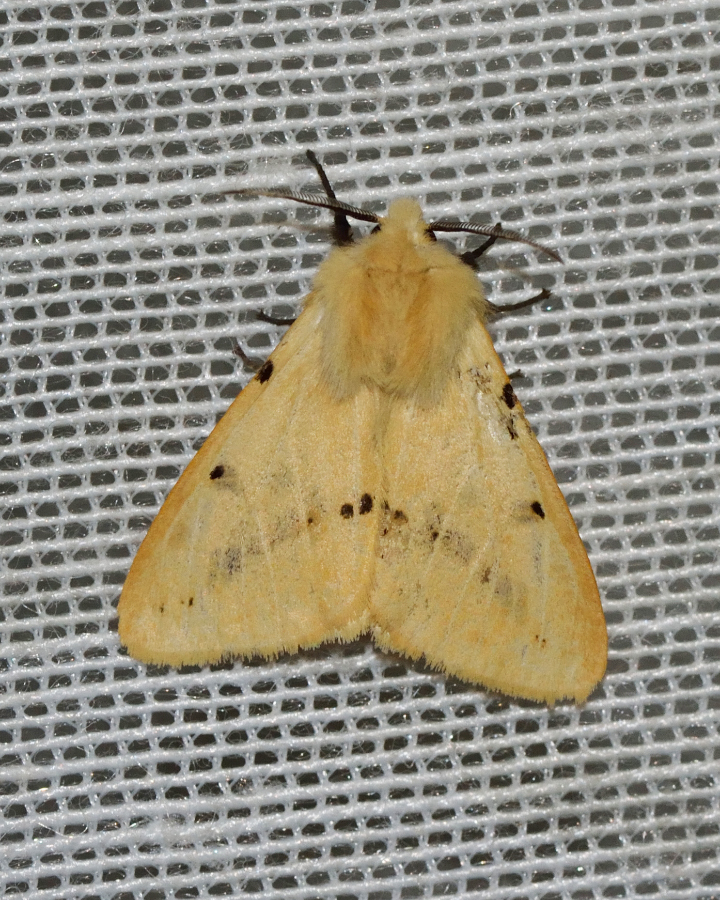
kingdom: Animalia
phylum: Arthropoda
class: Insecta
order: Lepidoptera
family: Erebidae
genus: Spilarctia
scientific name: Spilarctia lutea
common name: Buff ermine
